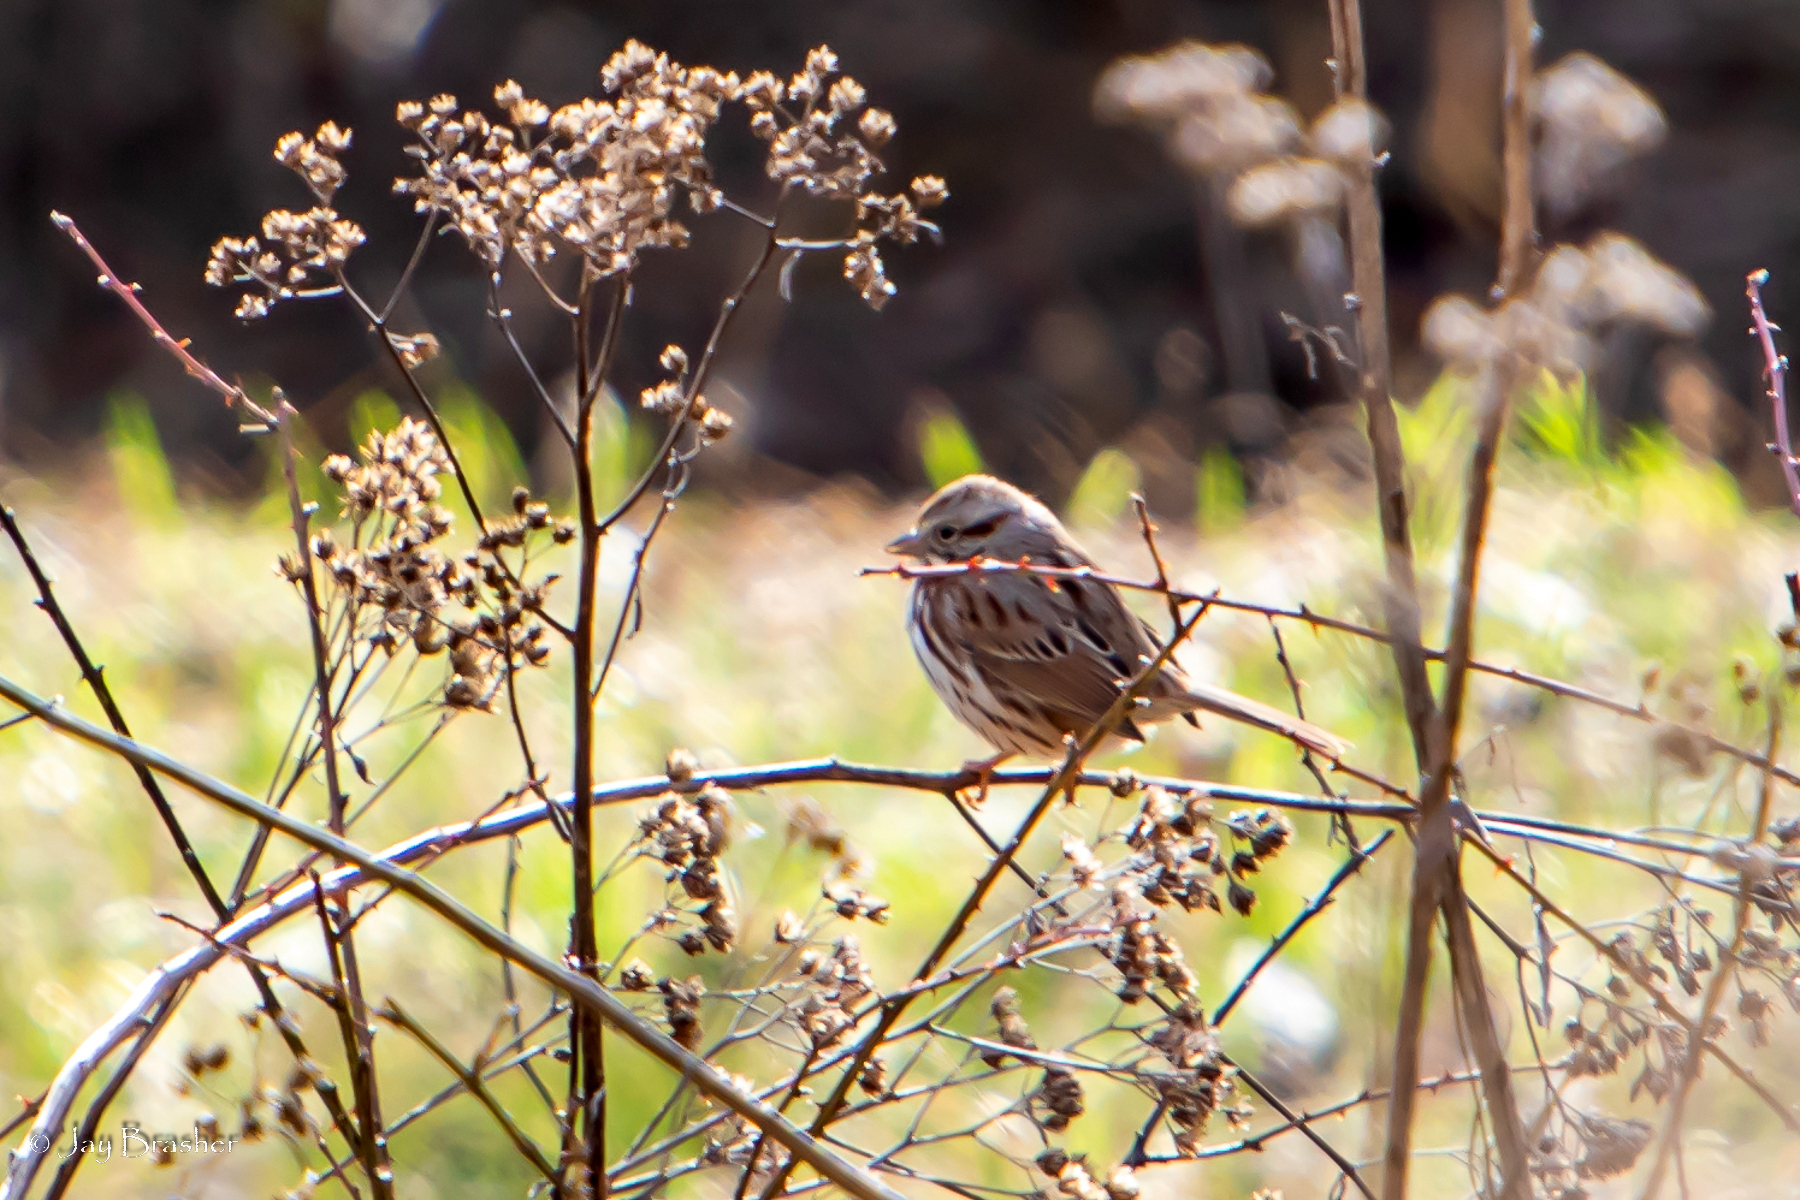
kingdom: Animalia
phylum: Chordata
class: Aves
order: Passeriformes
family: Passerellidae
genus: Melospiza
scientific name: Melospiza melodia
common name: Song sparrow
